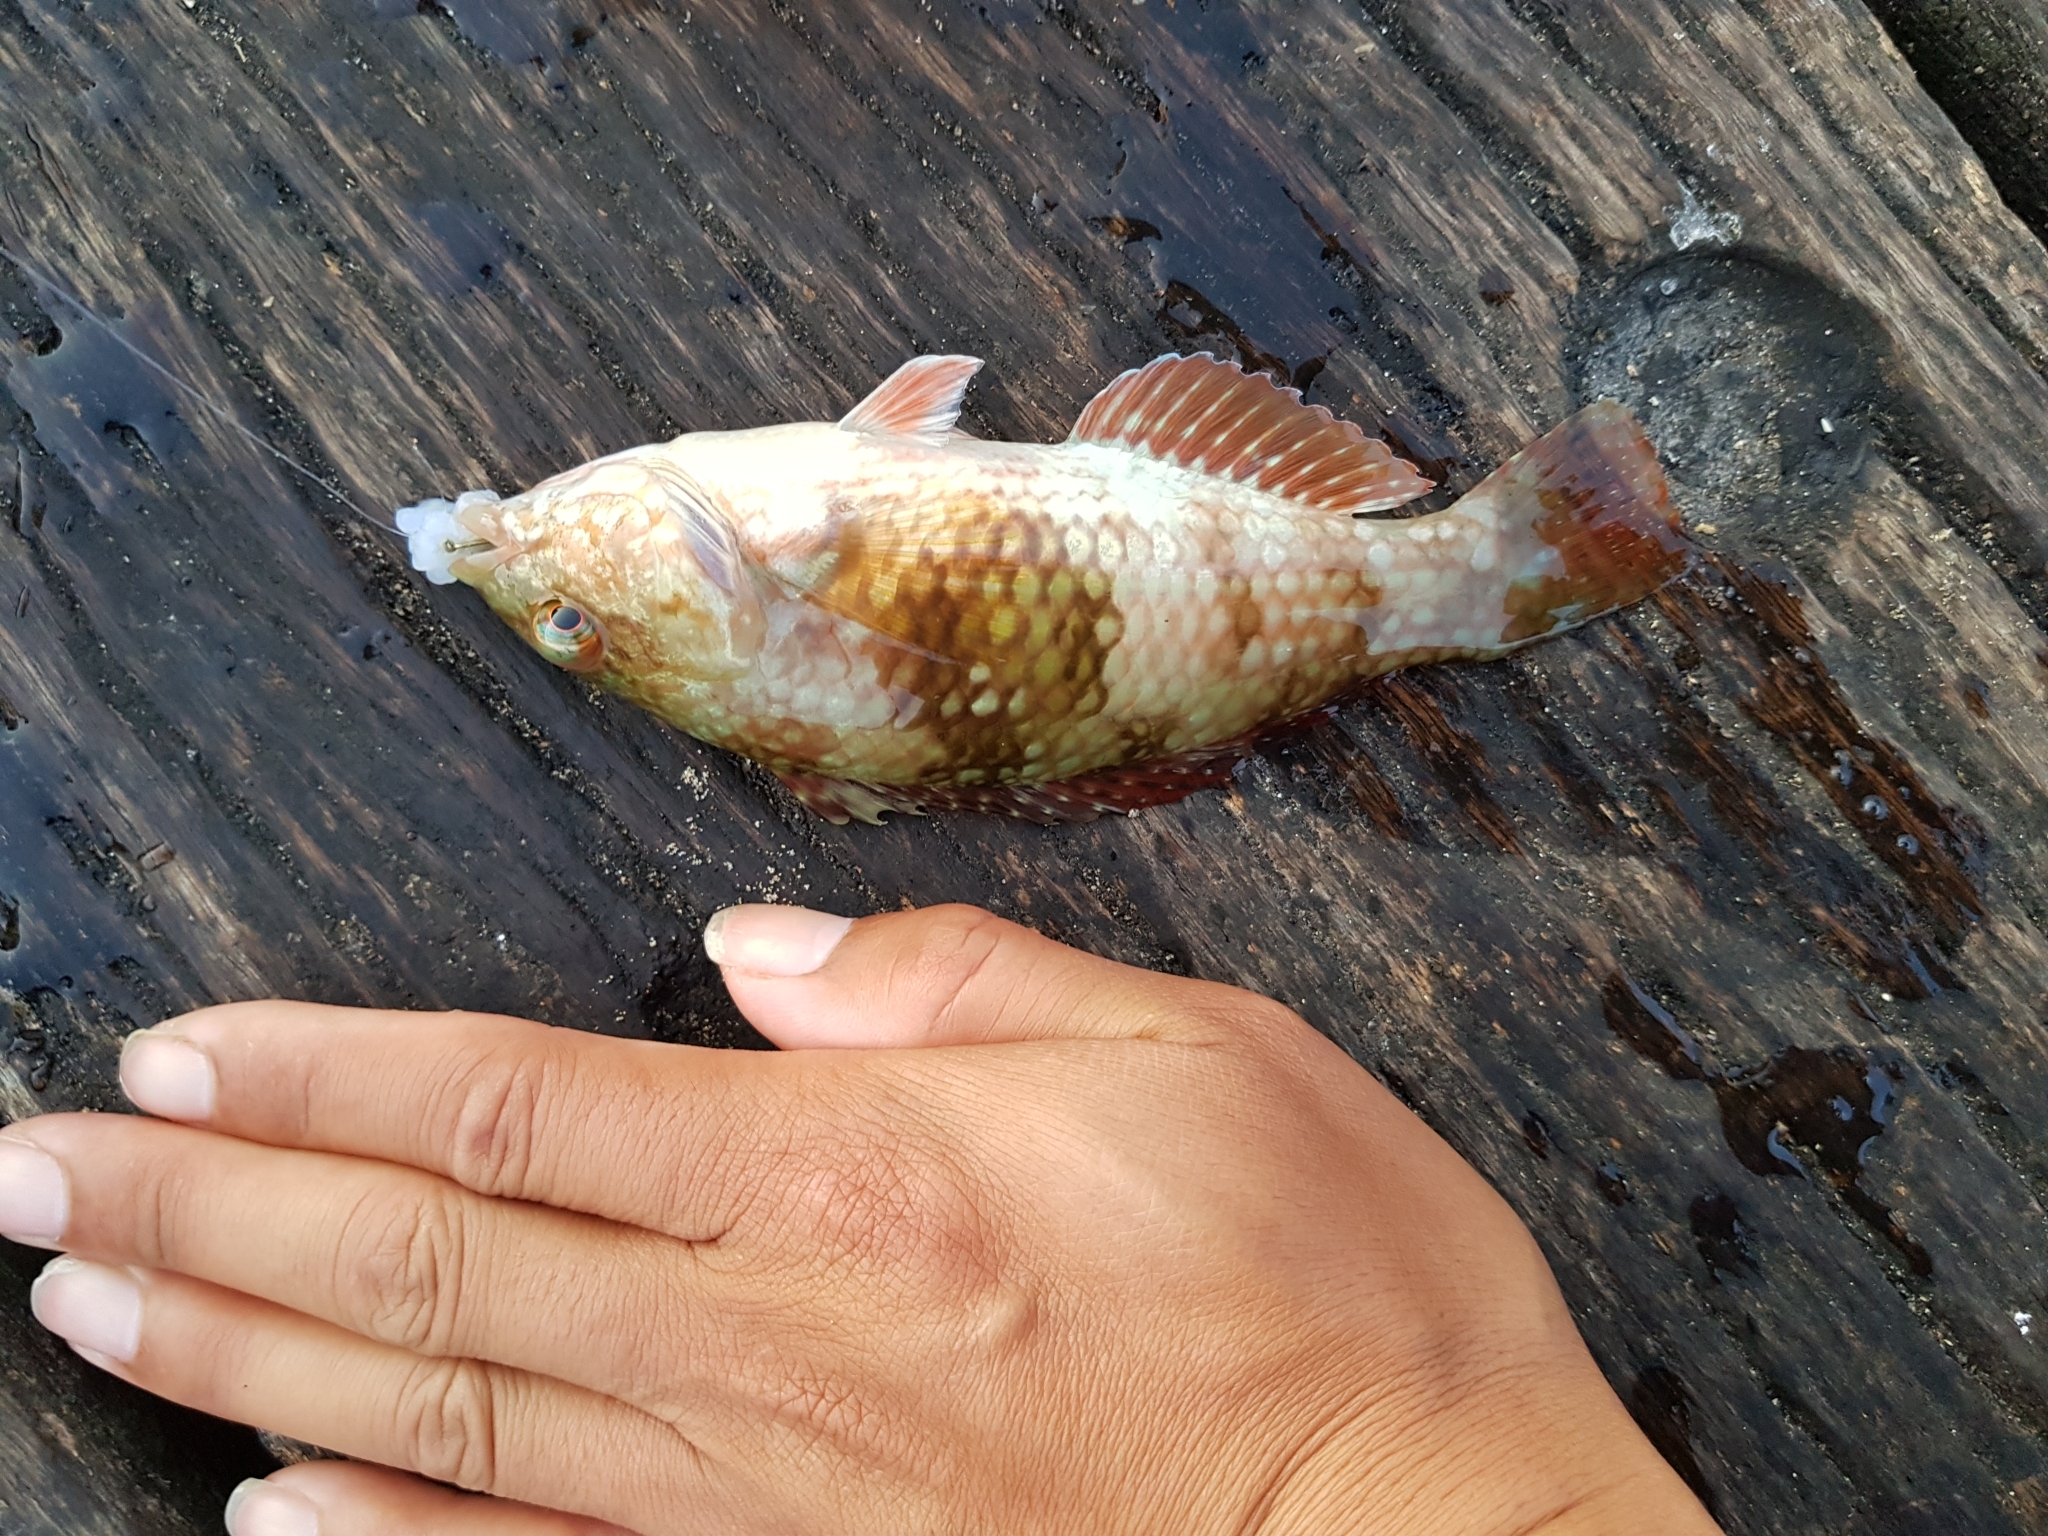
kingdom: Animalia
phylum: Chordata
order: Perciformes
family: Labridae
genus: Notolabrus
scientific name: Notolabrus tetricus
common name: Blue-throated parrotfish
